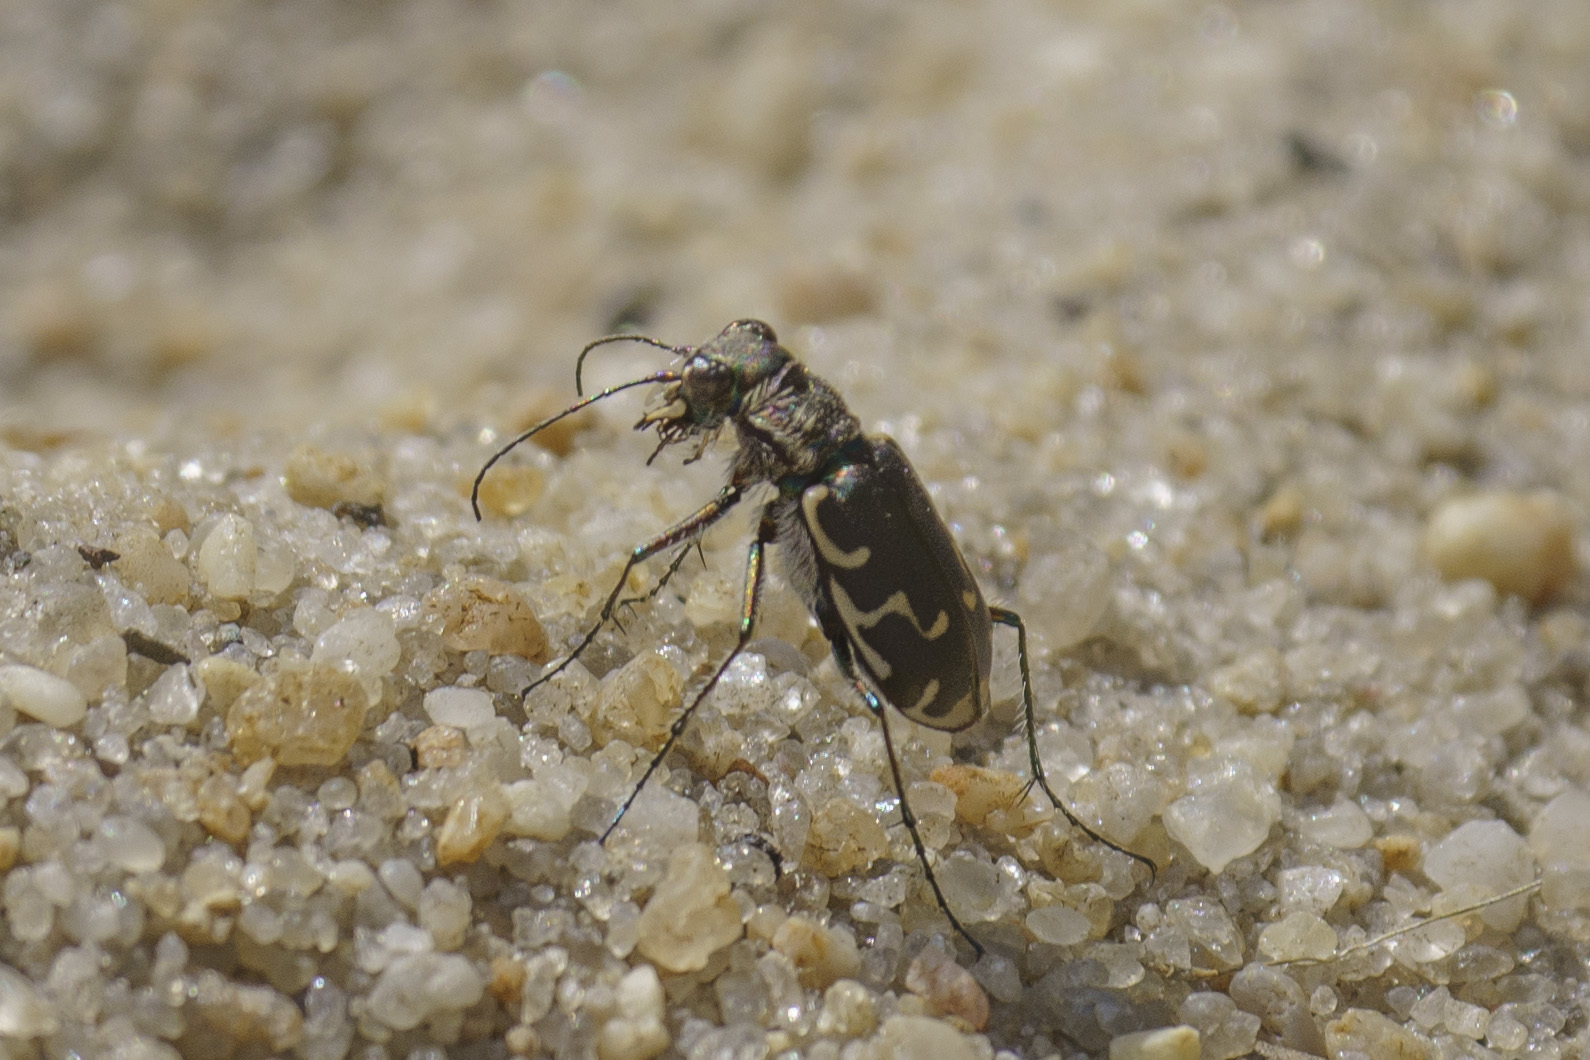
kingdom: Animalia
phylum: Arthropoda
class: Insecta
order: Coleoptera
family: Carabidae
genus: Cicindela
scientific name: Cicindela repanda
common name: Bronzed tiger beetle
